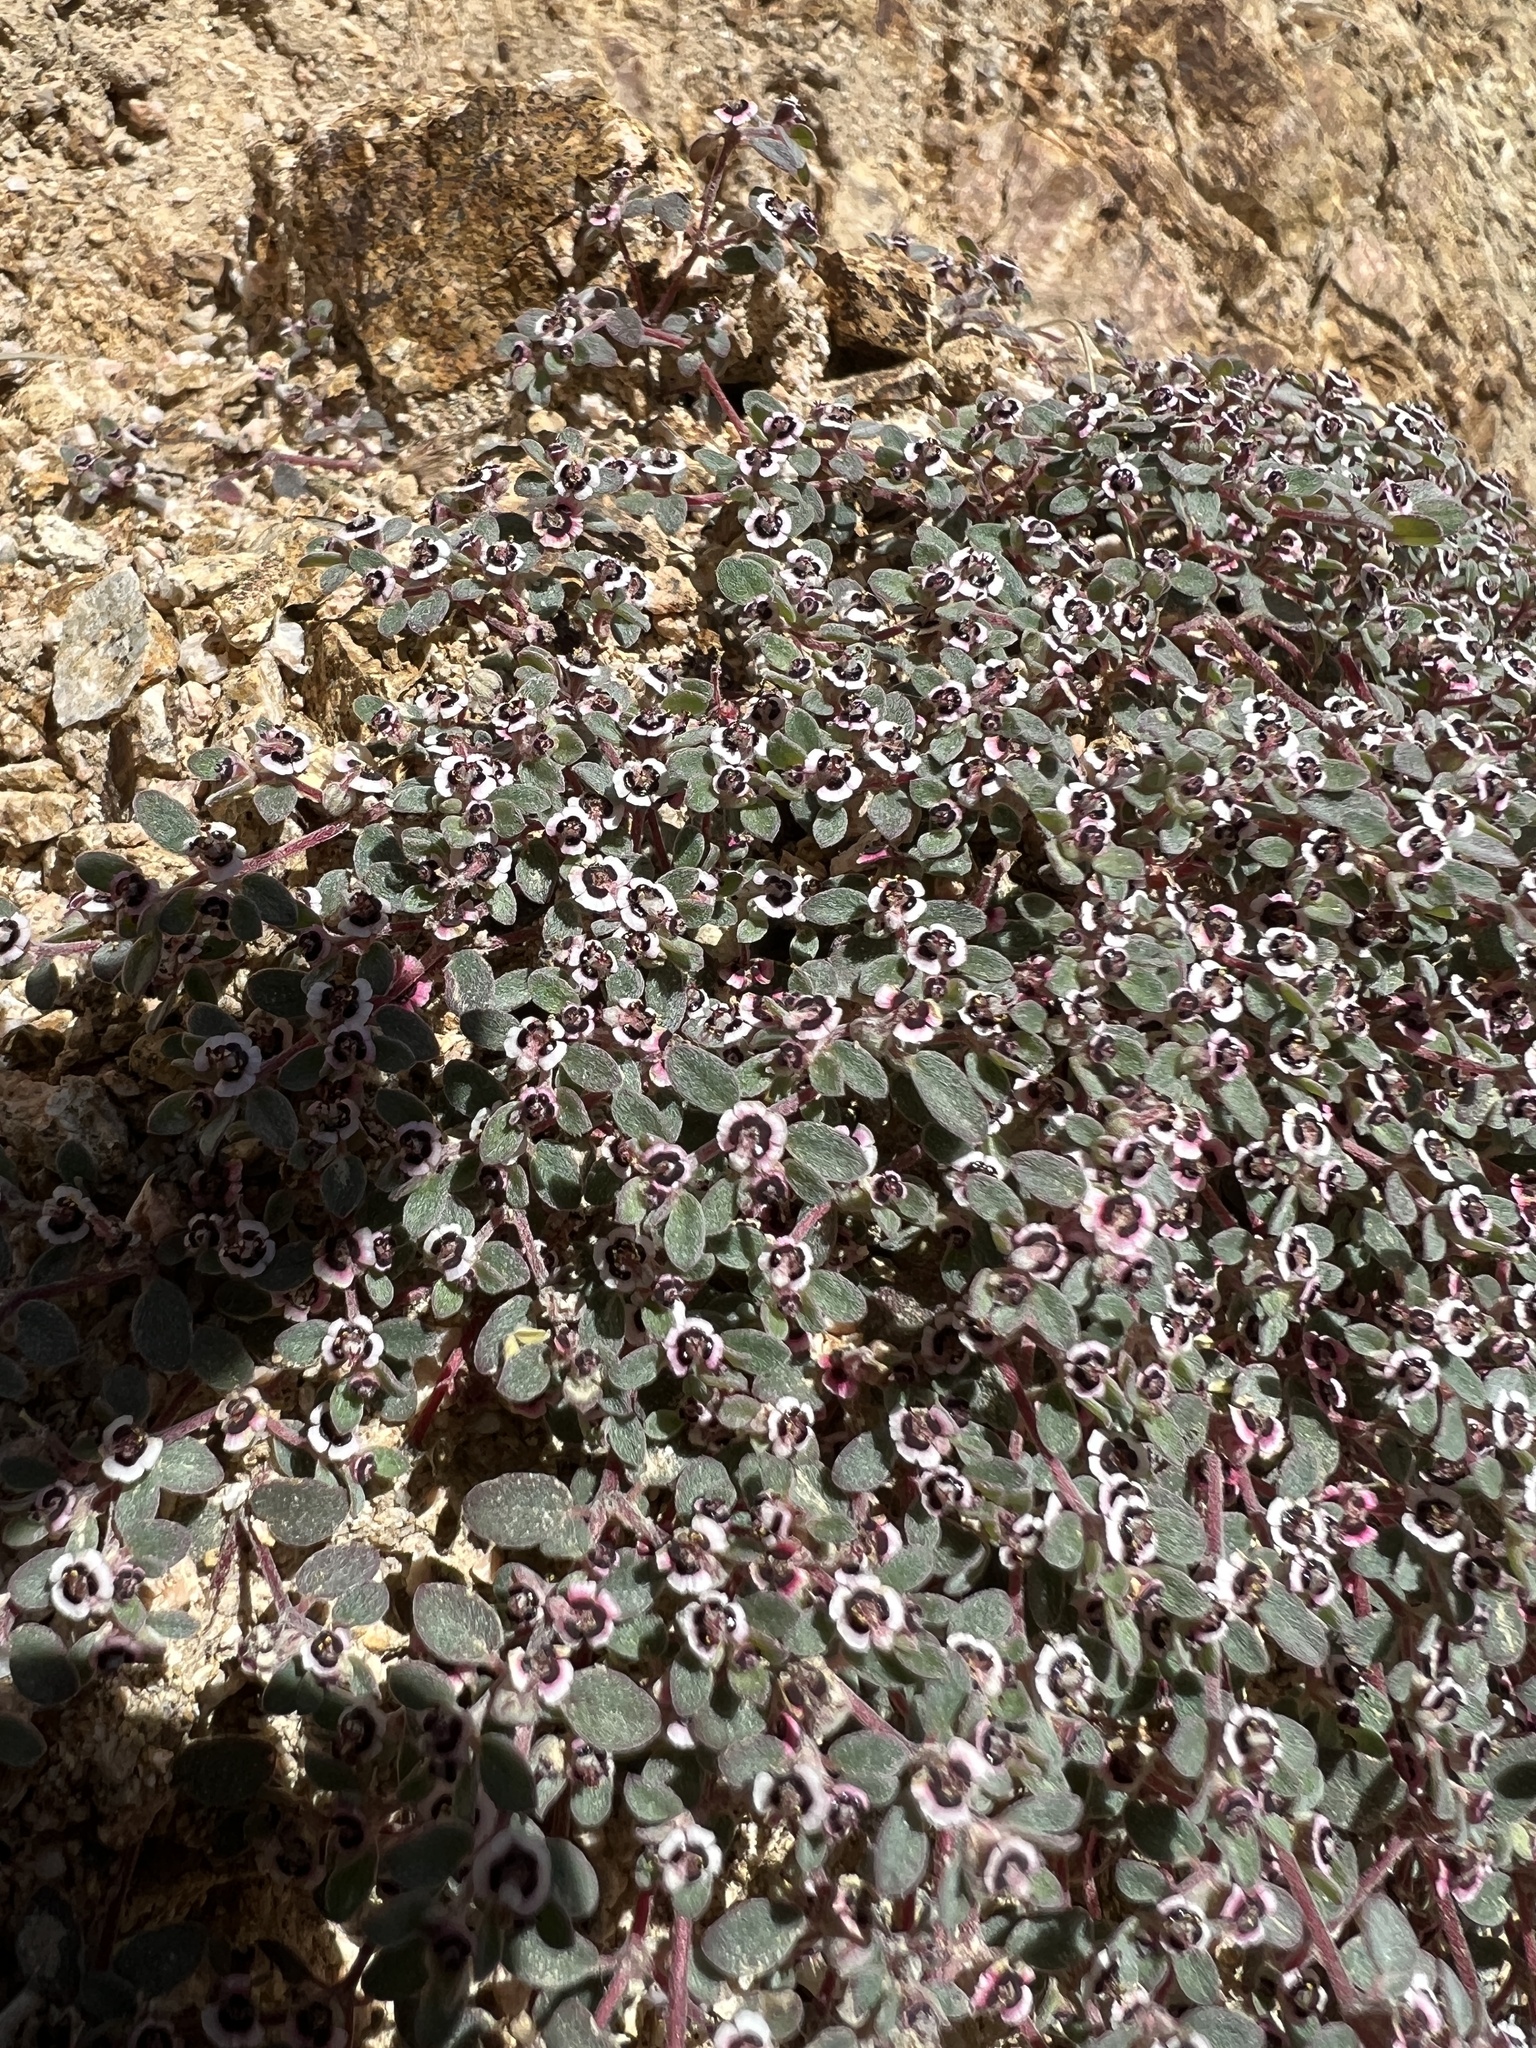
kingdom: Plantae
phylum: Tracheophyta
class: Magnoliopsida
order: Malpighiales
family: Euphorbiaceae
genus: Euphorbia
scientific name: Euphorbia melanadenia
